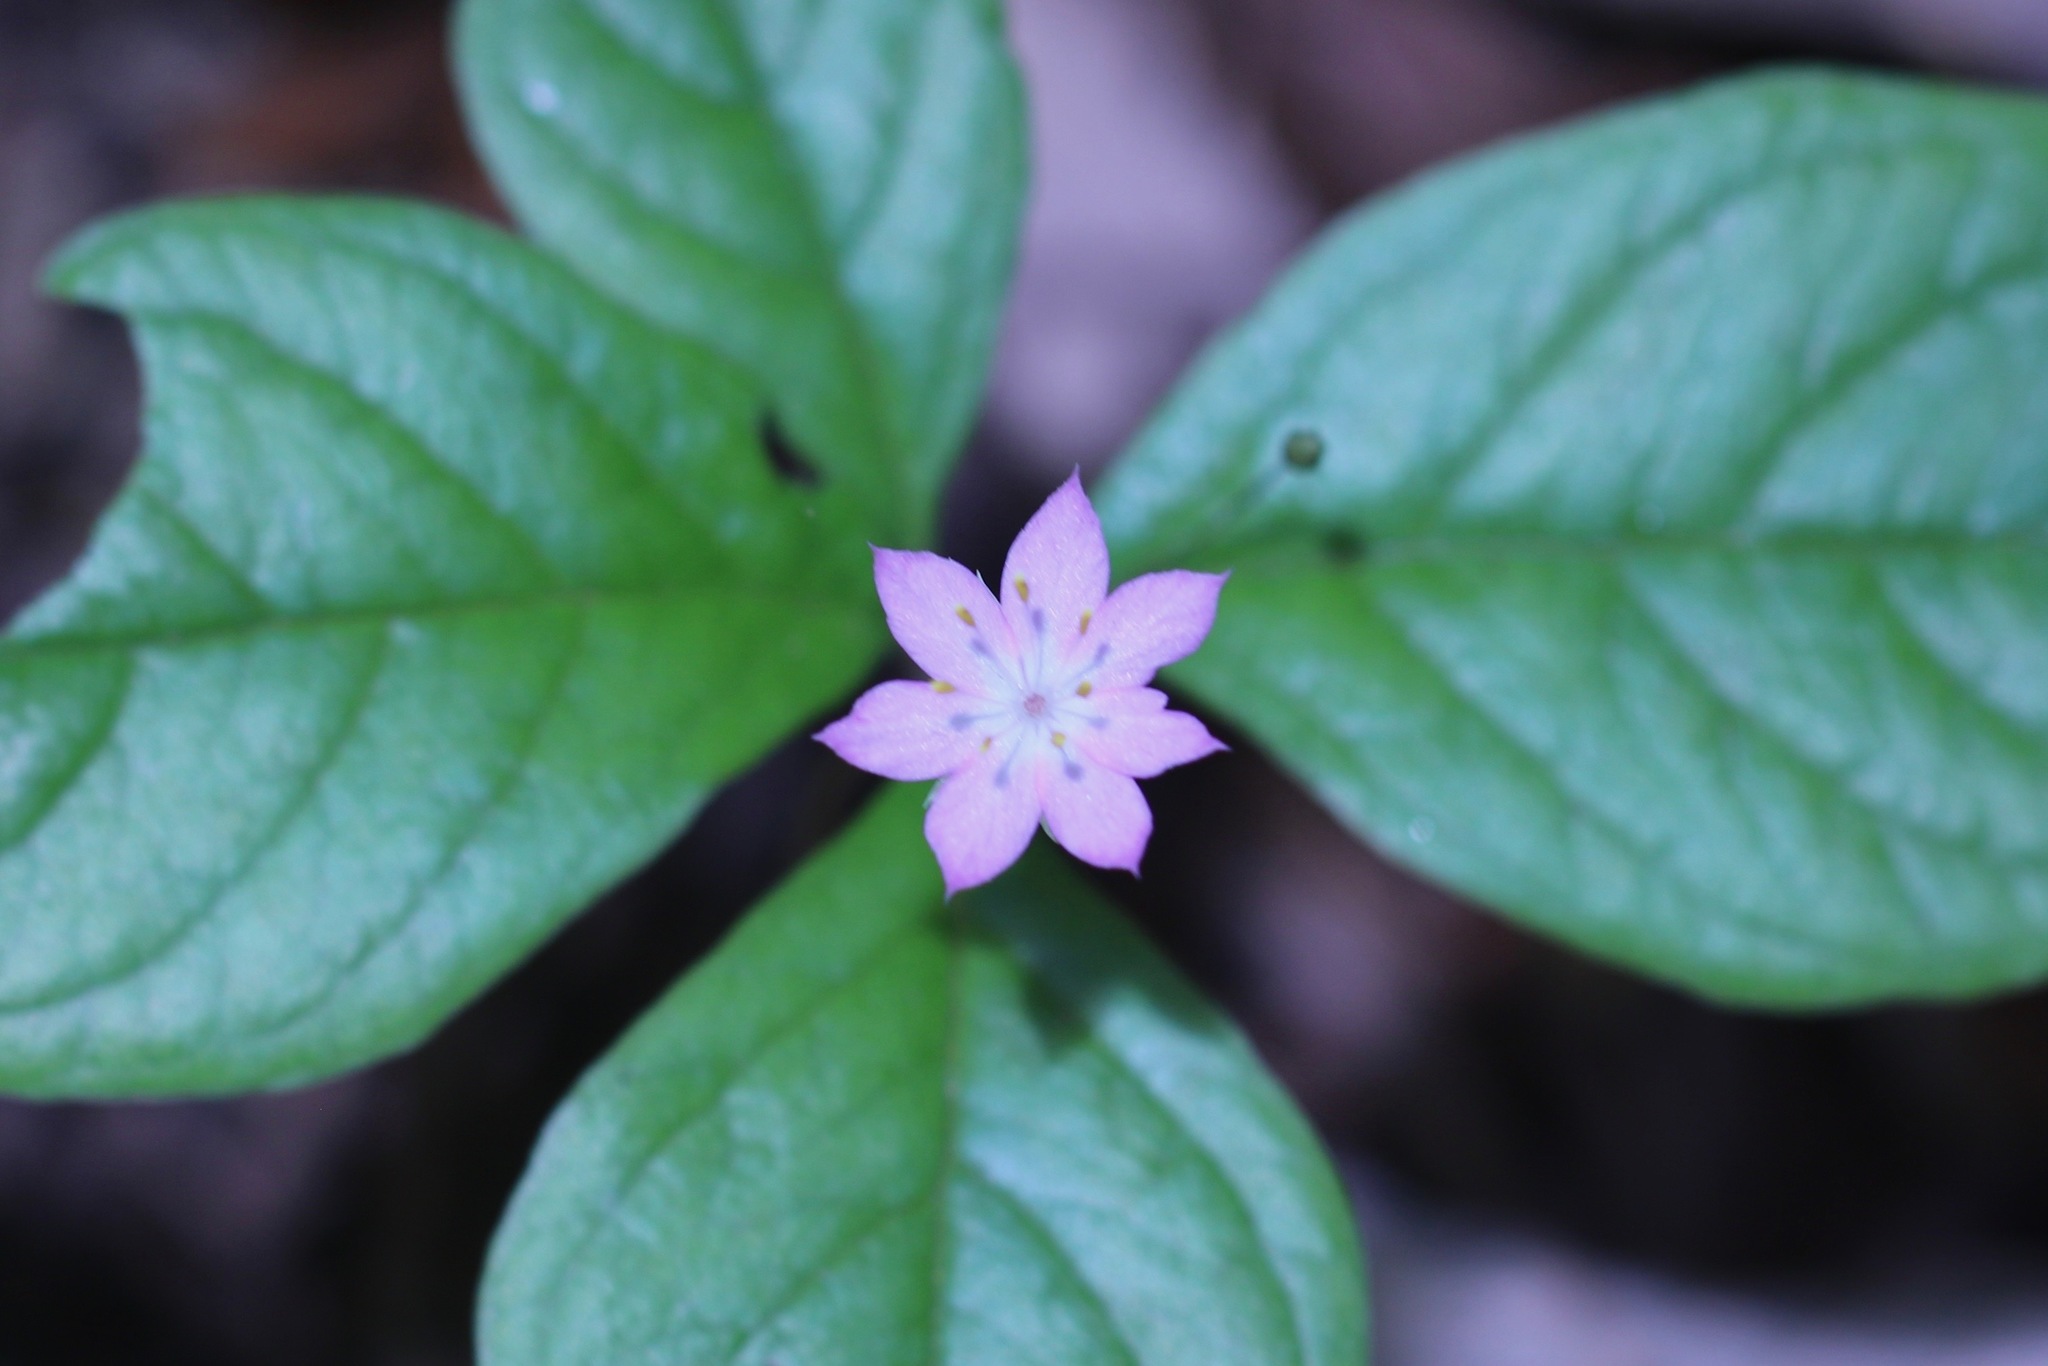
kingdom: Plantae
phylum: Tracheophyta
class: Magnoliopsida
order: Ericales
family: Primulaceae
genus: Lysimachia
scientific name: Lysimachia latifolia
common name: Pacific starflower
